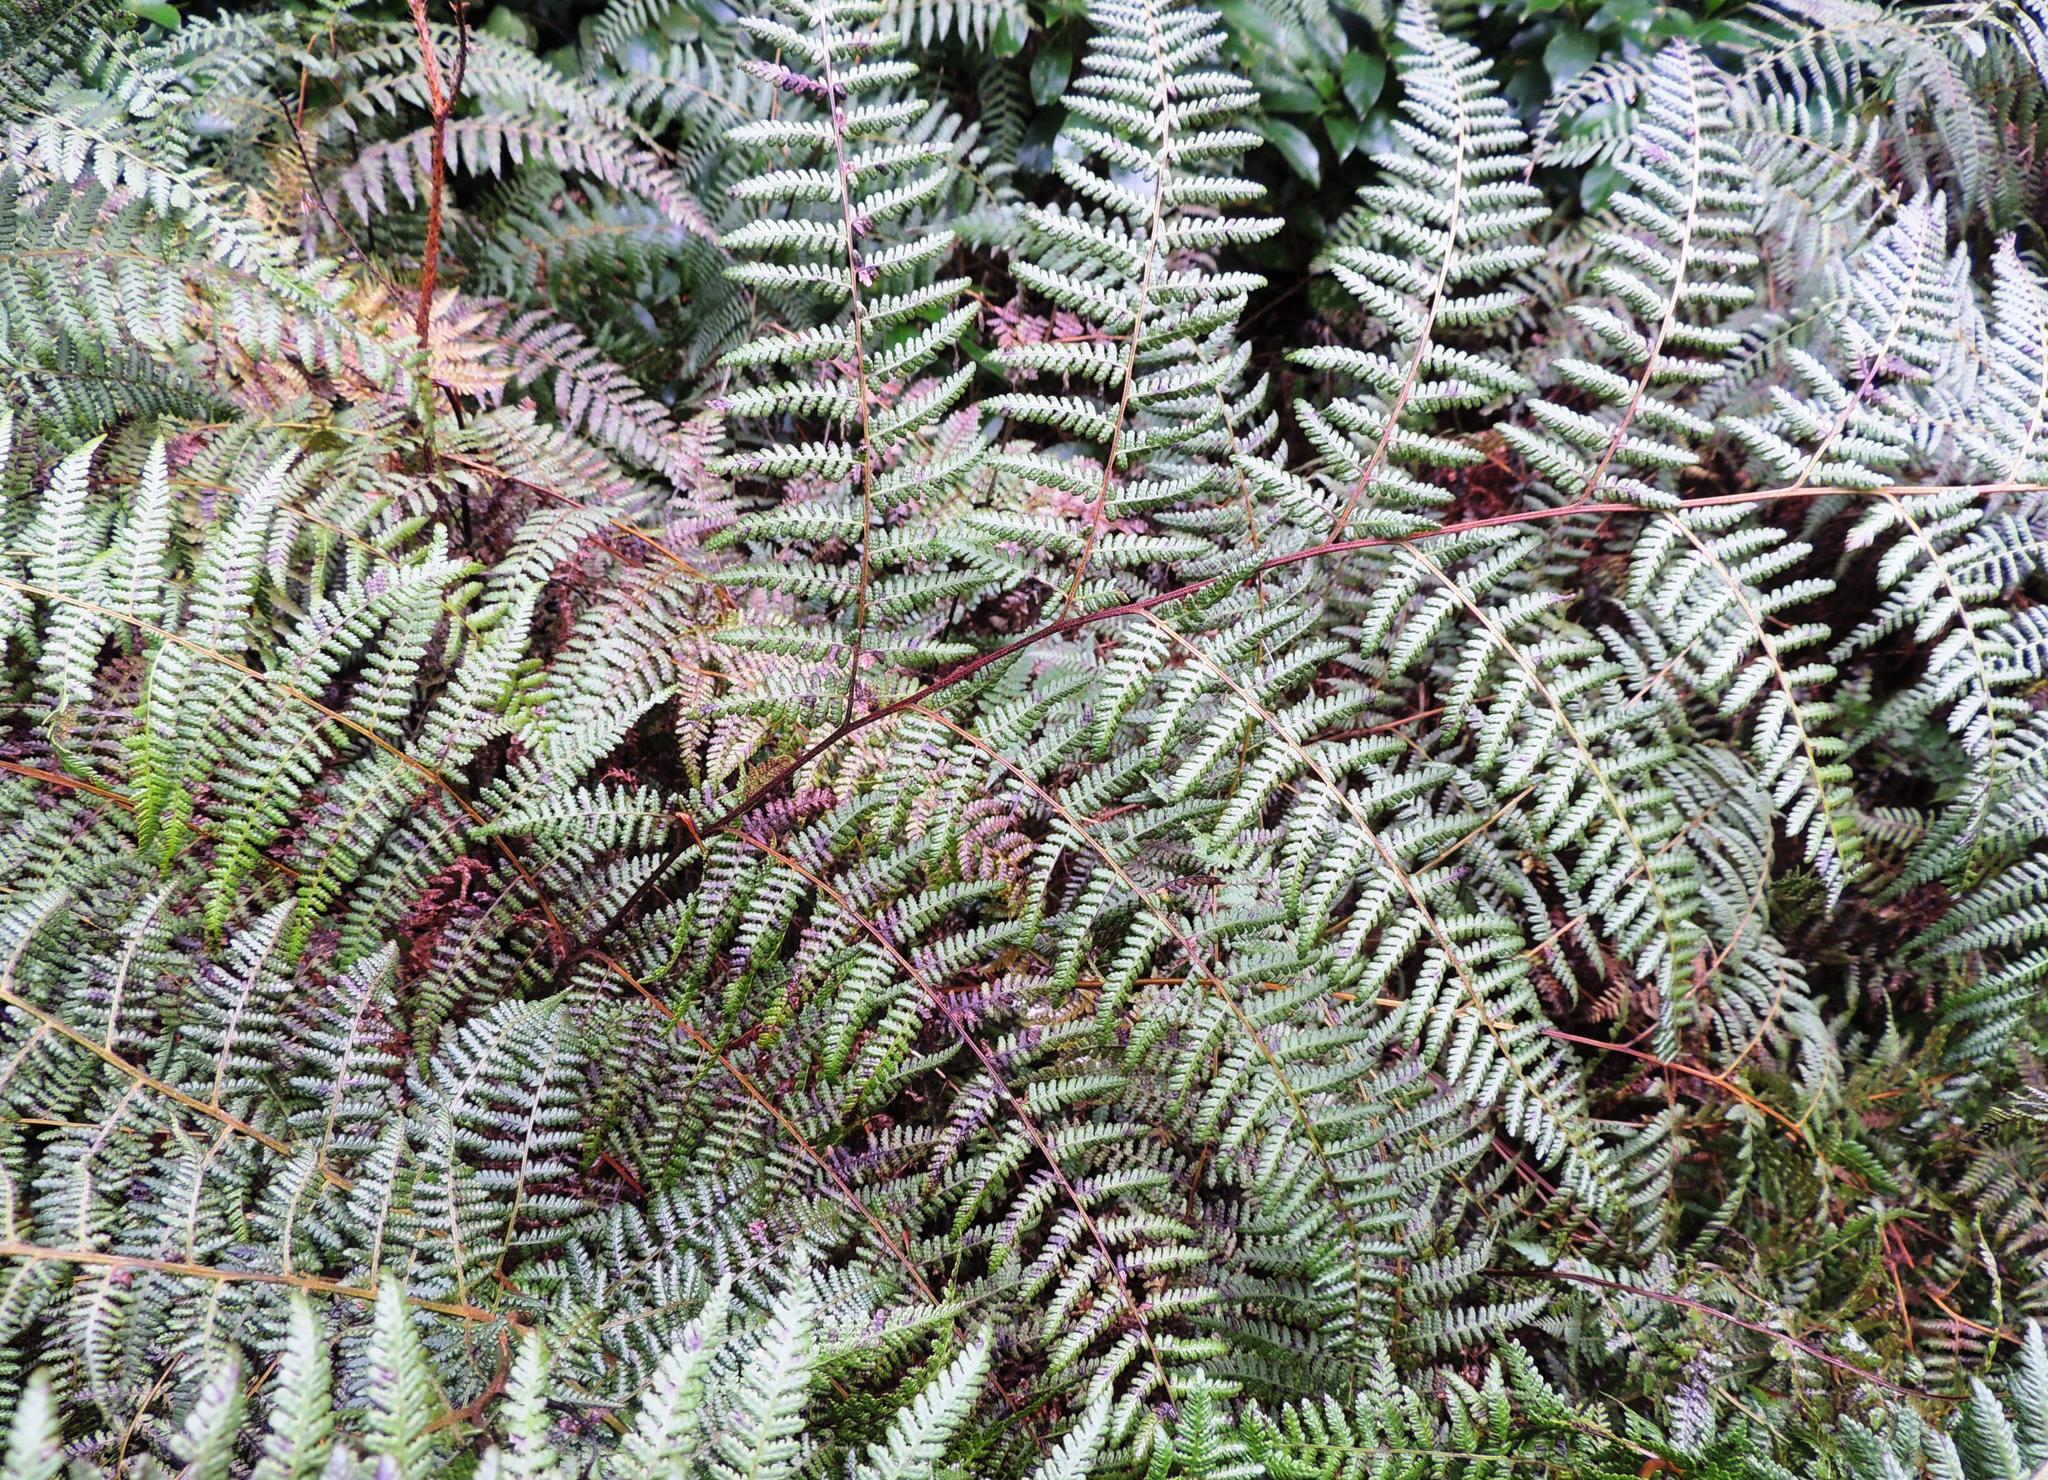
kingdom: Plantae
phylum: Tracheophyta
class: Polypodiopsida
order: Polypodiales
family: Dennstaedtiaceae
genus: Hypolepis
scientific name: Hypolepis ambigua
